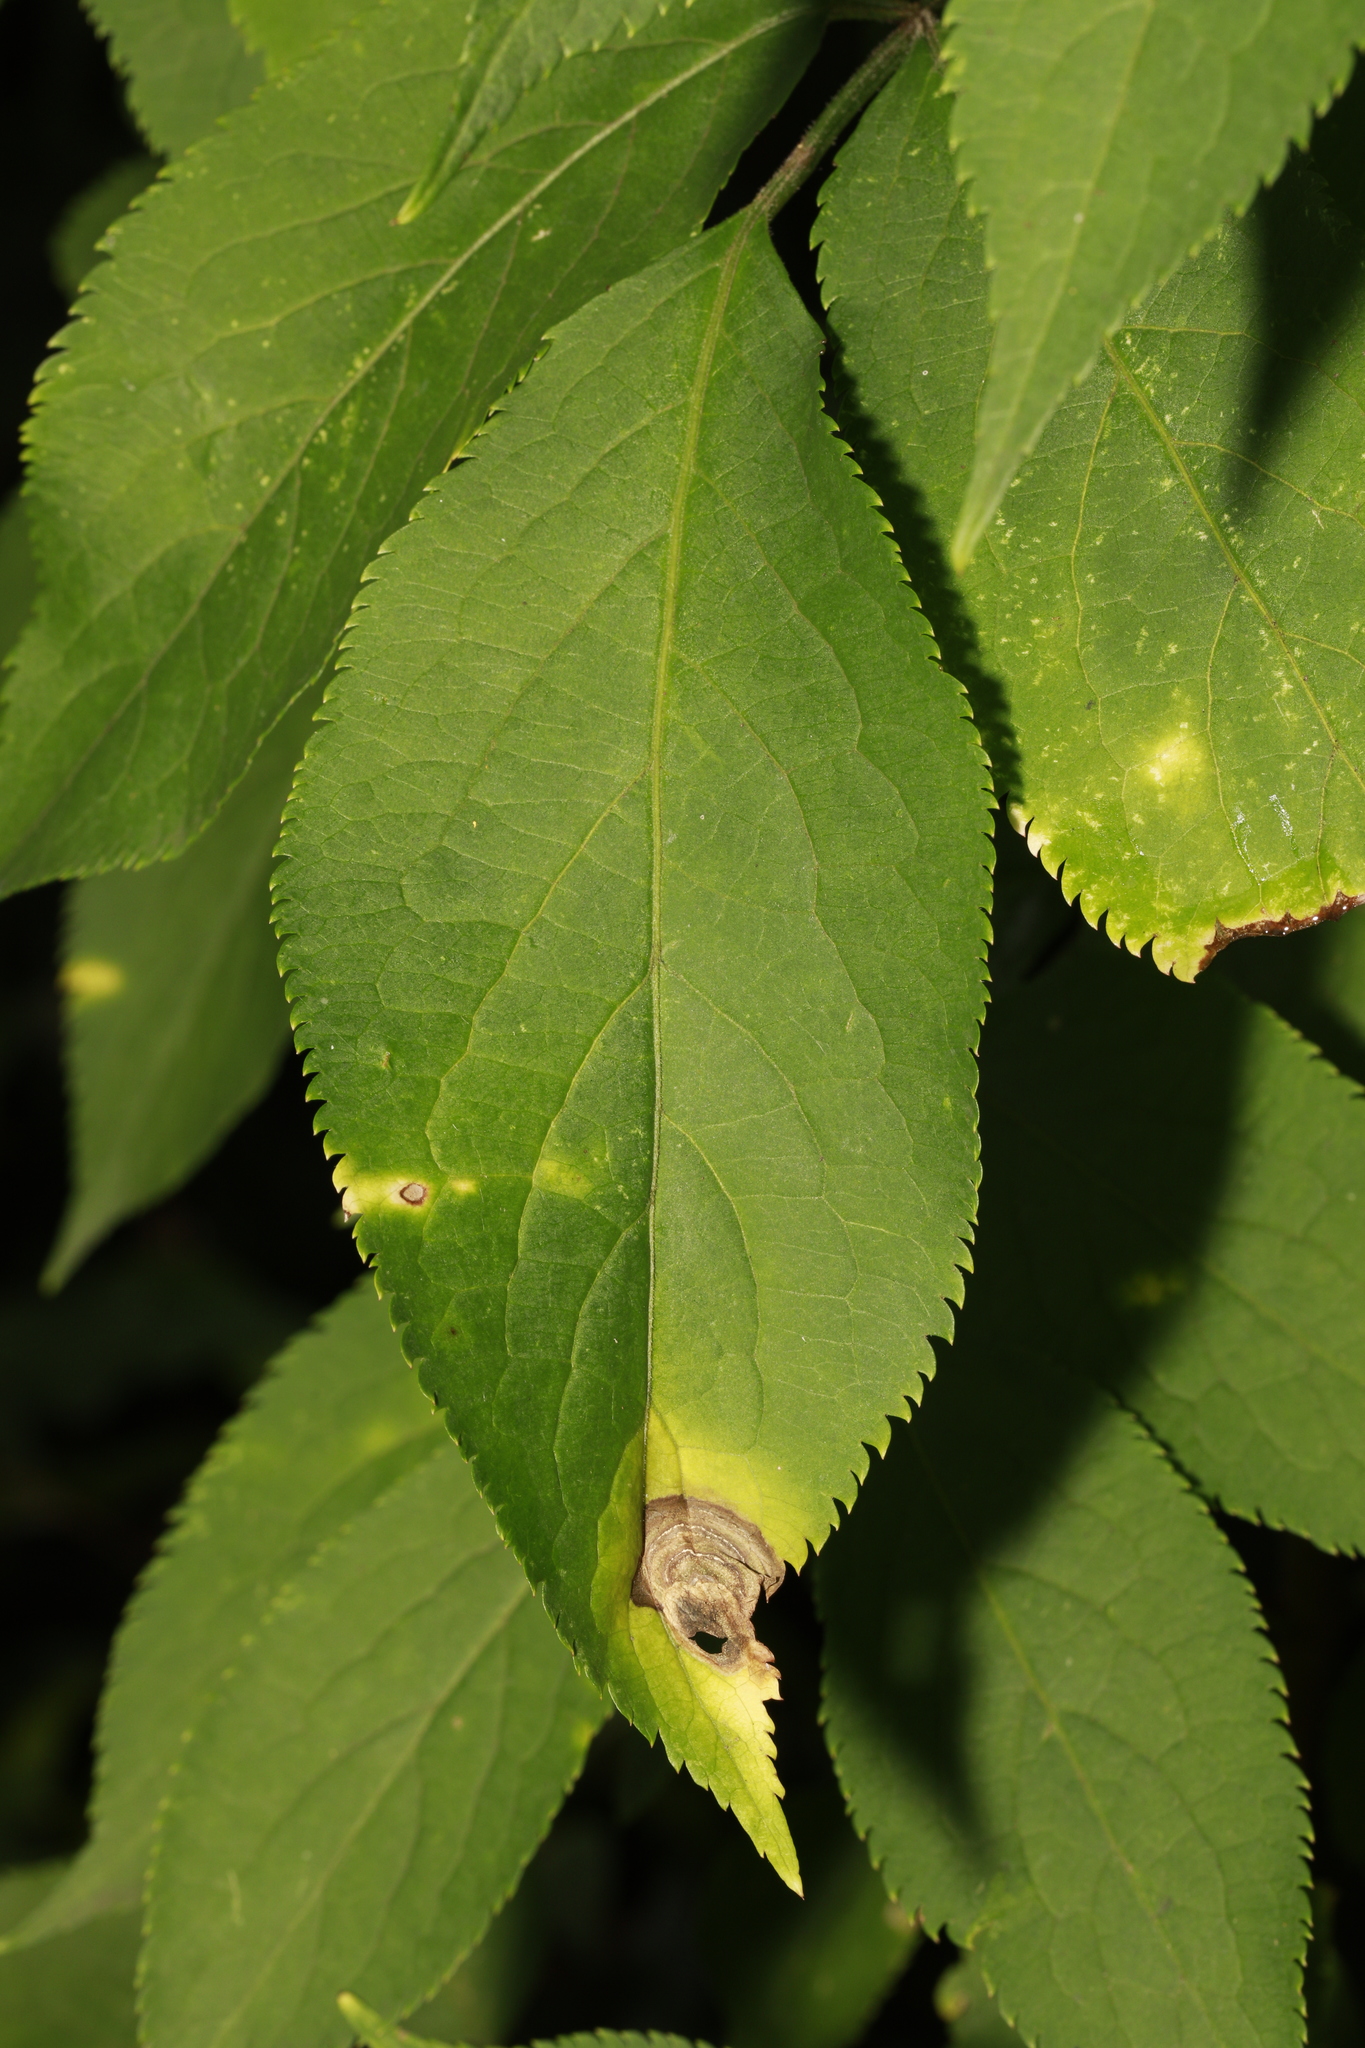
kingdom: Plantae
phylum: Tracheophyta
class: Magnoliopsida
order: Dipsacales
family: Viburnaceae
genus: Sambucus
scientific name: Sambucus nigra
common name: Elder
